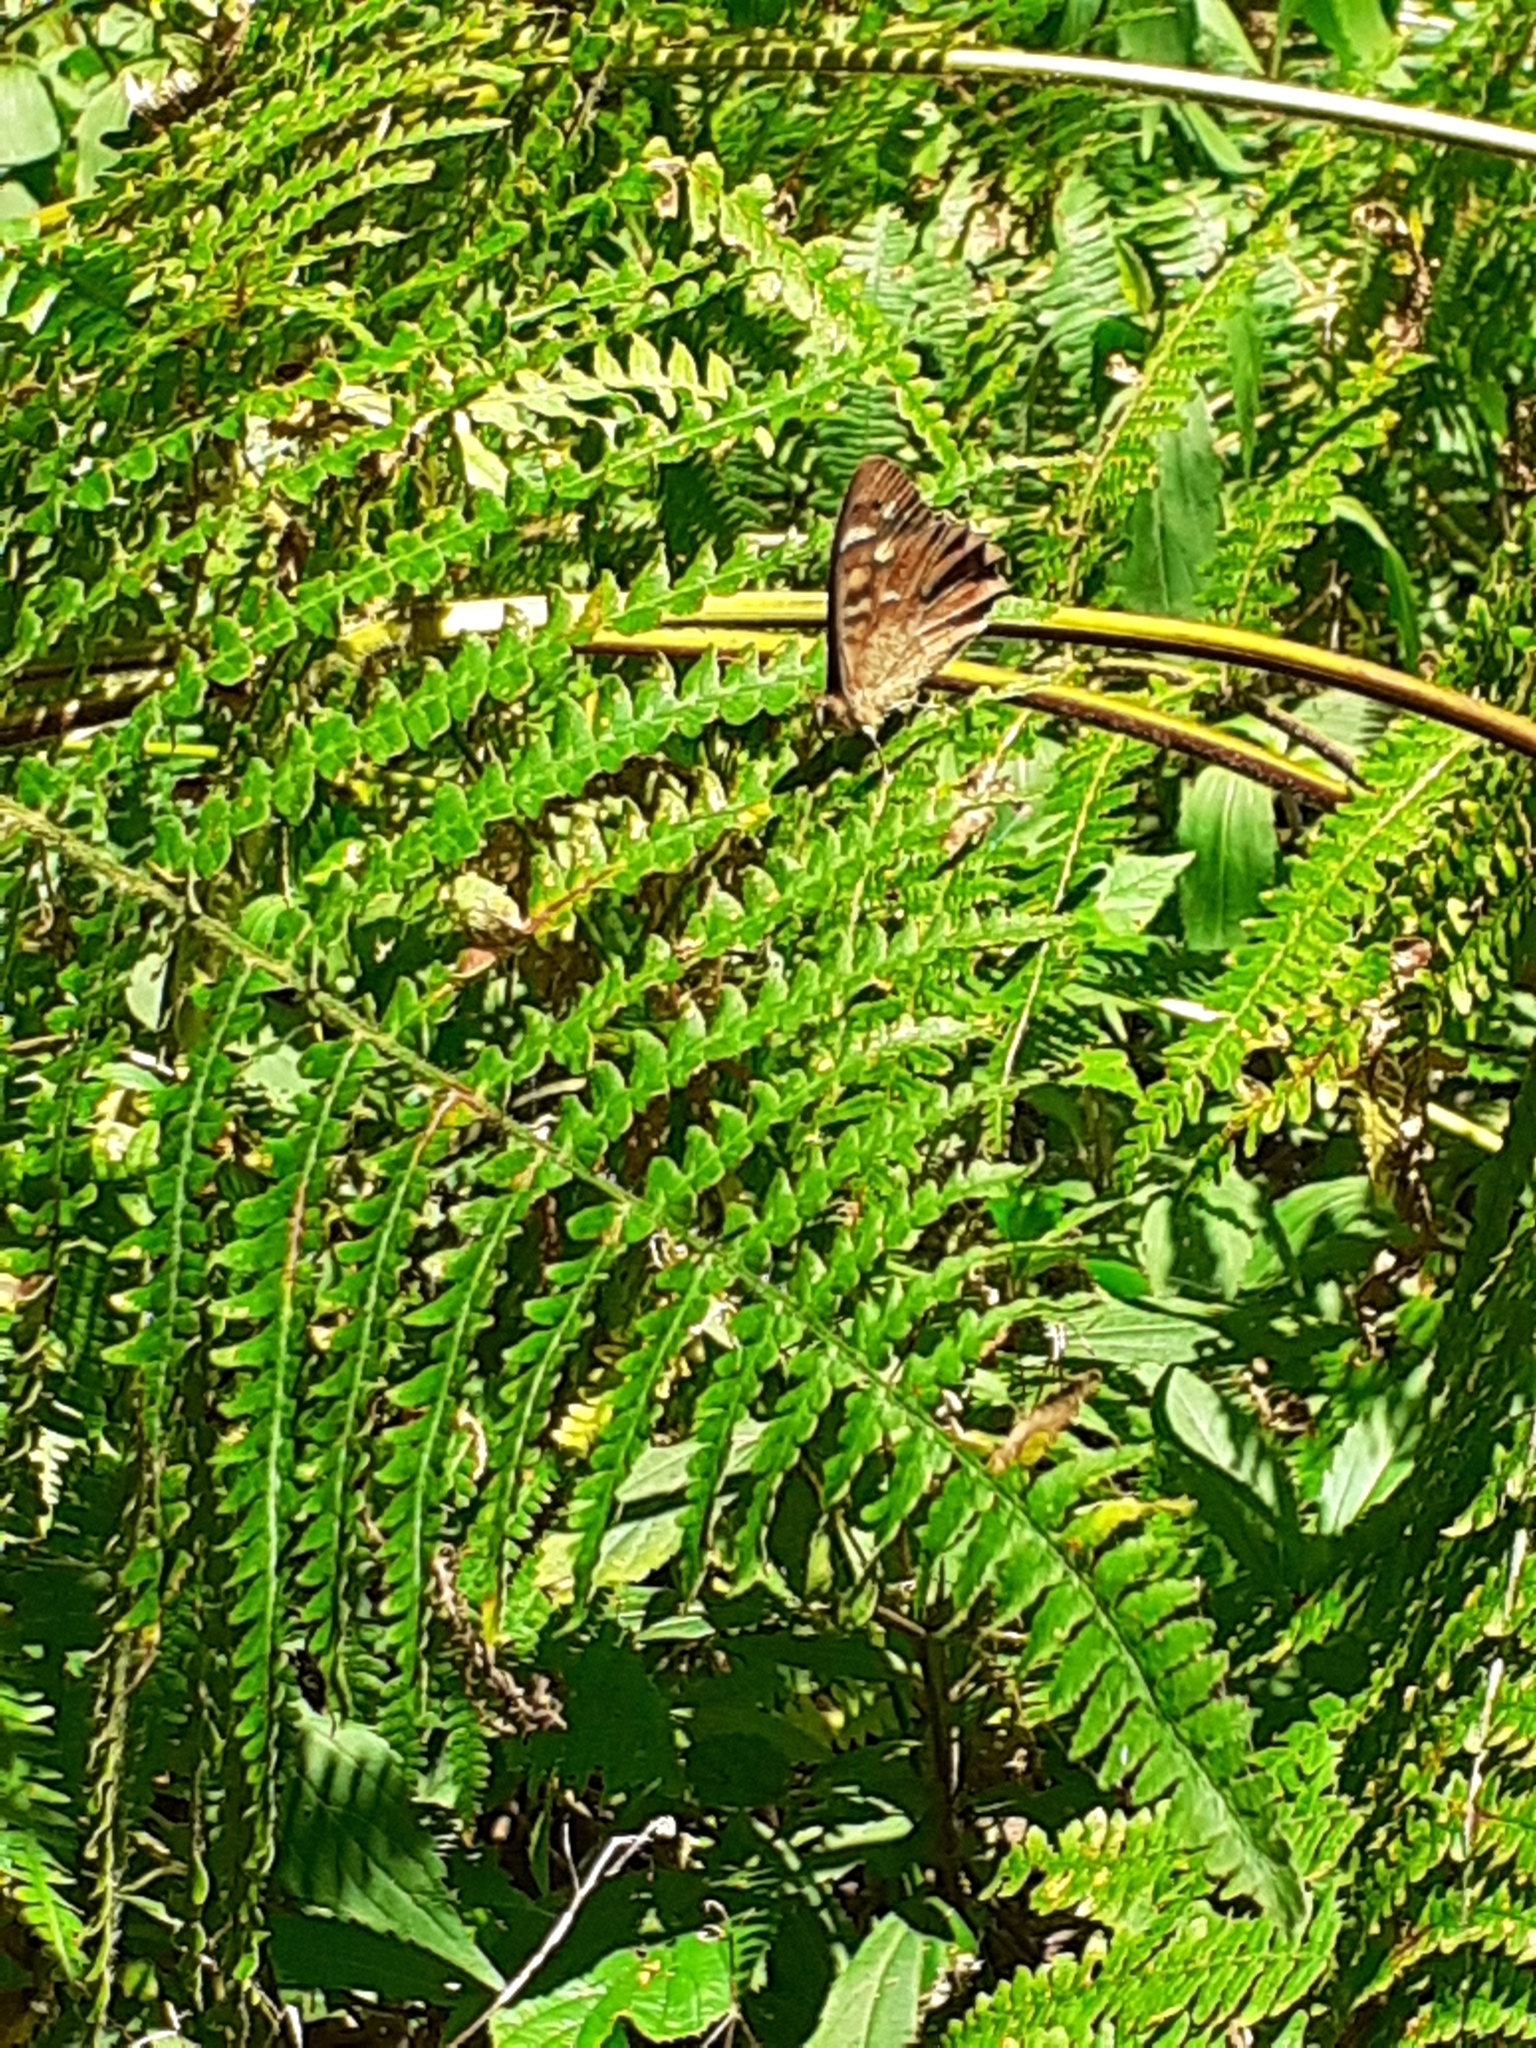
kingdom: Animalia
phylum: Arthropoda
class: Insecta
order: Lepidoptera
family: Nymphalidae
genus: Pararge
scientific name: Pararge aegeria
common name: Speckled wood
